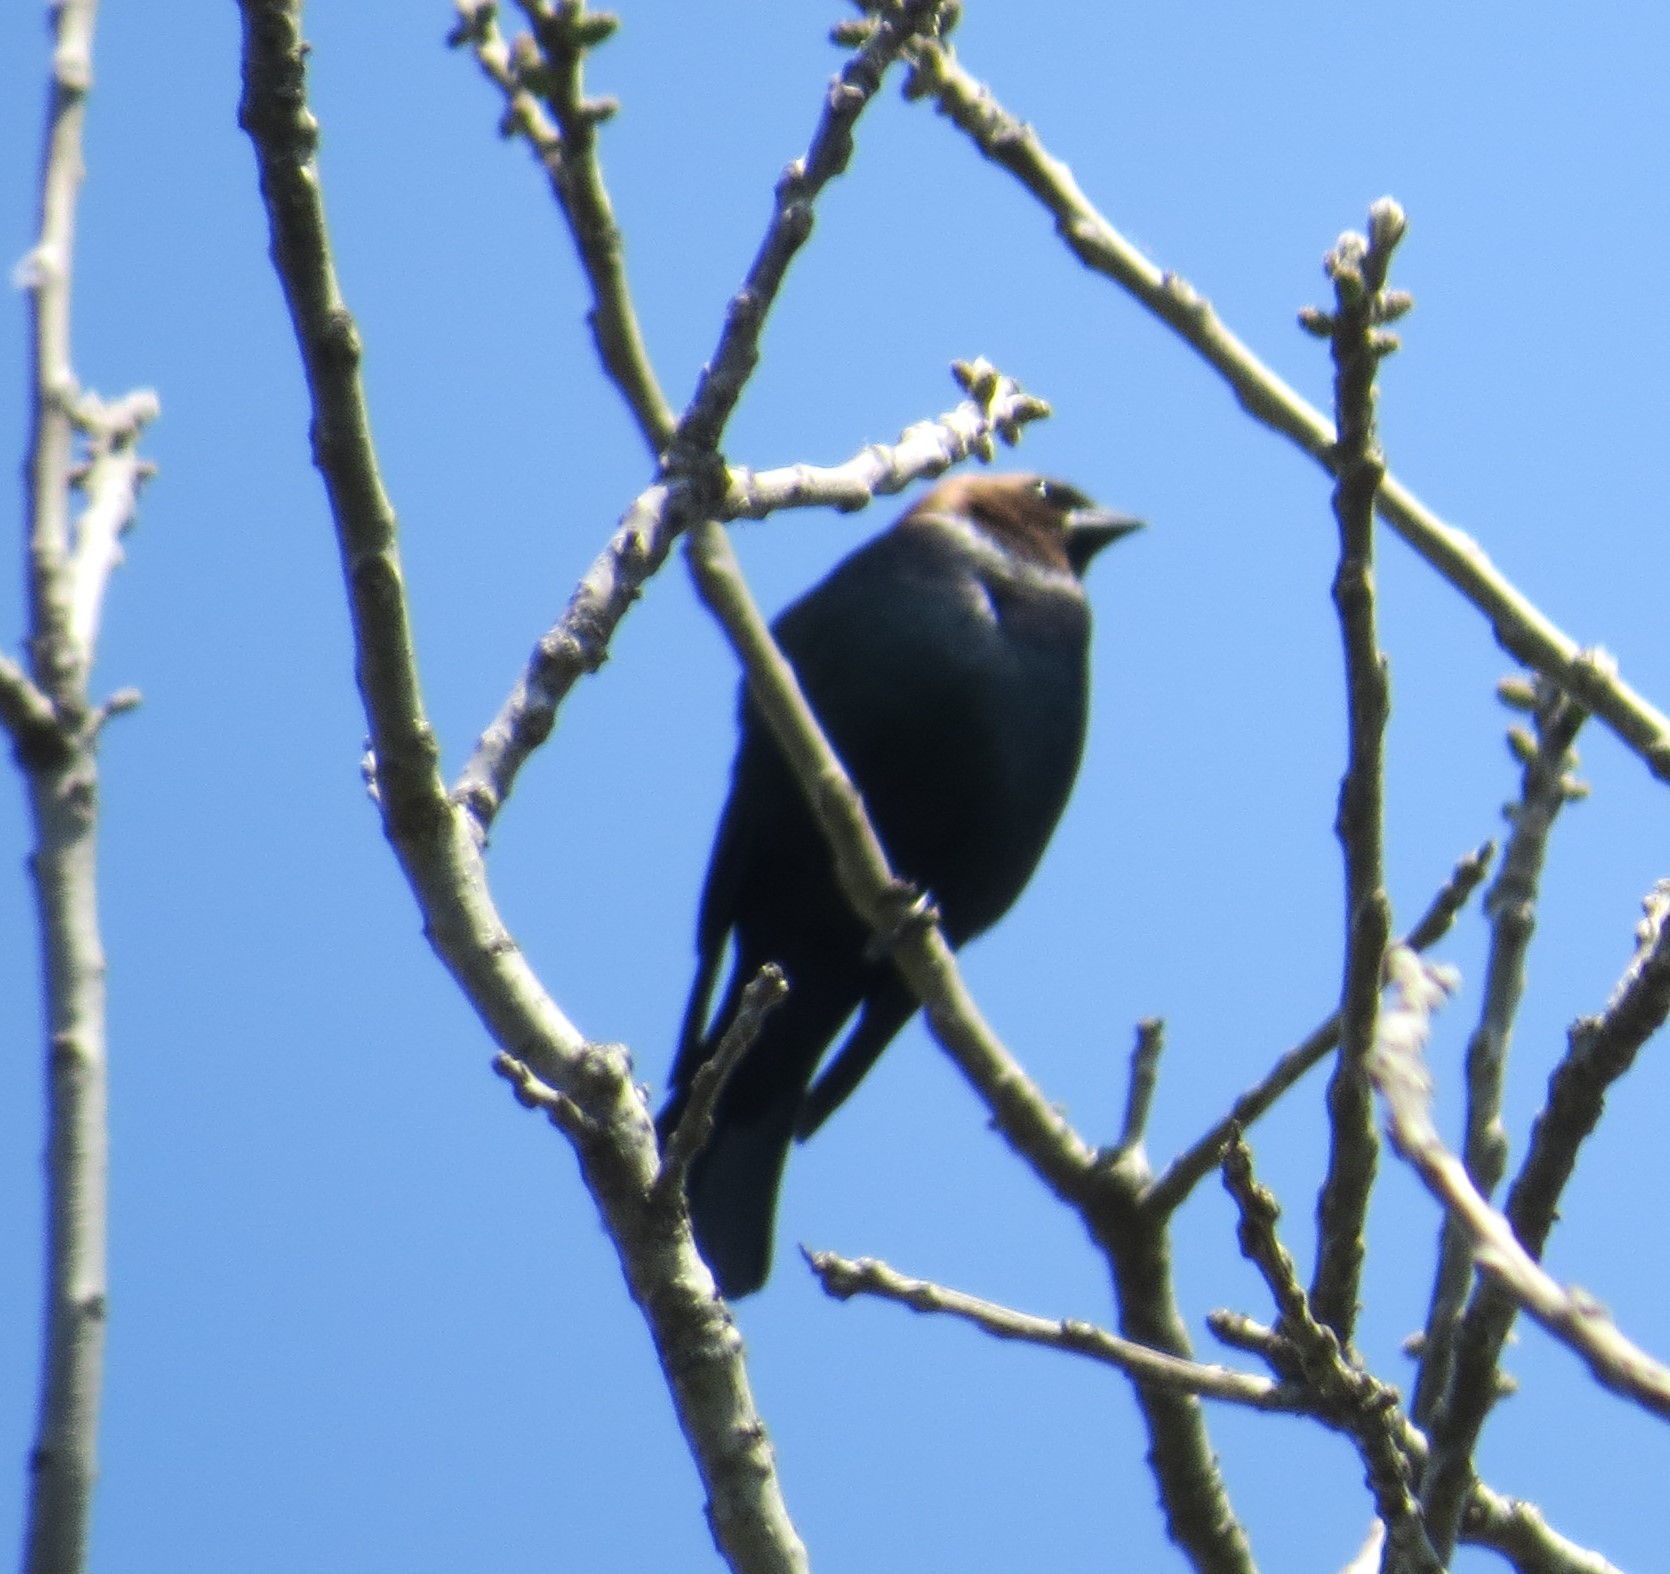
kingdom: Animalia
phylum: Chordata
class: Aves
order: Passeriformes
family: Icteridae
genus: Molothrus
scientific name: Molothrus ater
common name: Brown-headed cowbird
